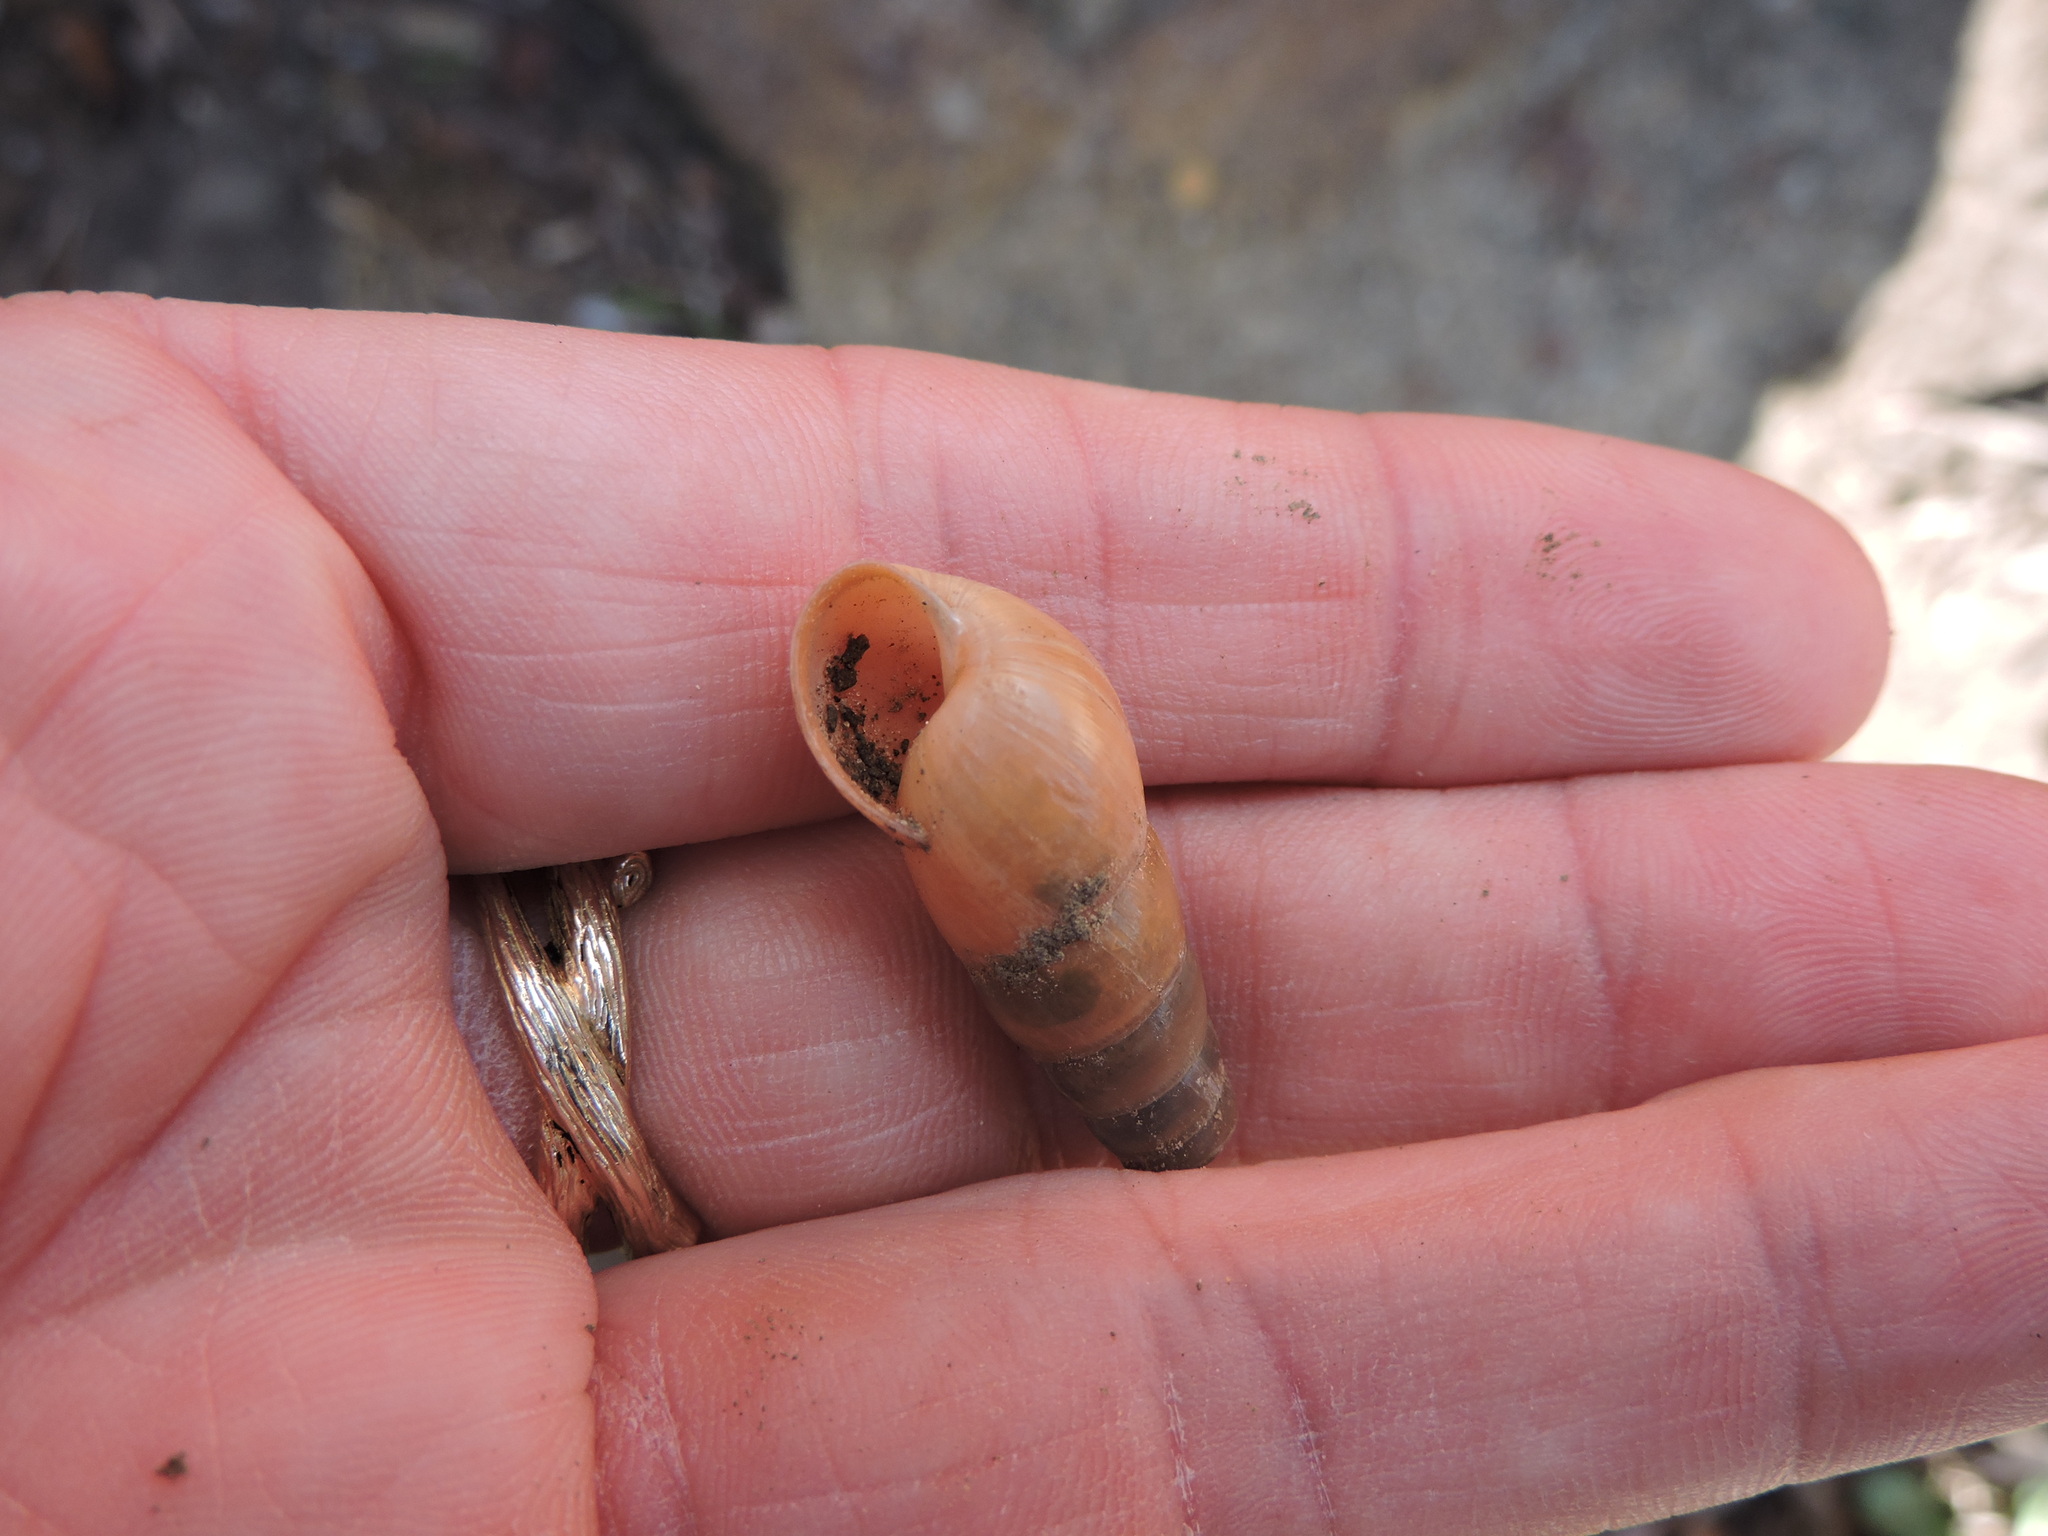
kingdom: Animalia
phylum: Mollusca
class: Gastropoda
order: Stylommatophora
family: Achatinidae
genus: Rumina
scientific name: Rumina decollata
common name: Decollate snail
